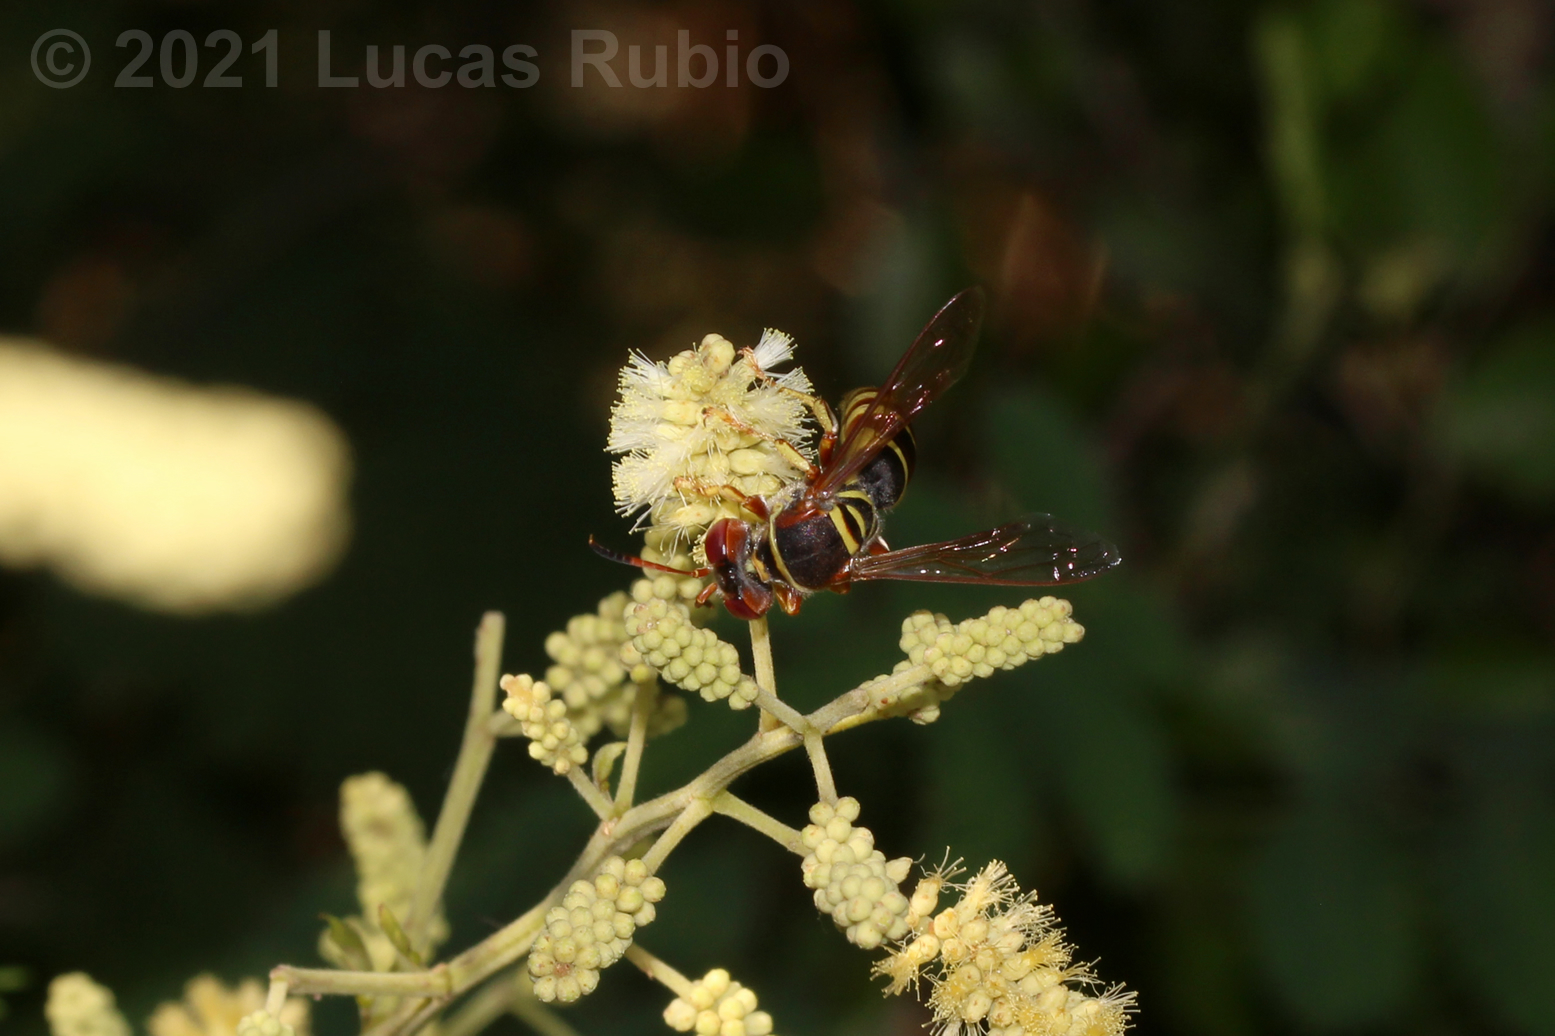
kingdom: Animalia
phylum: Arthropoda
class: Insecta
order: Hymenoptera
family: Crabronidae
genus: Rubrica
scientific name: Rubrica nasuta
